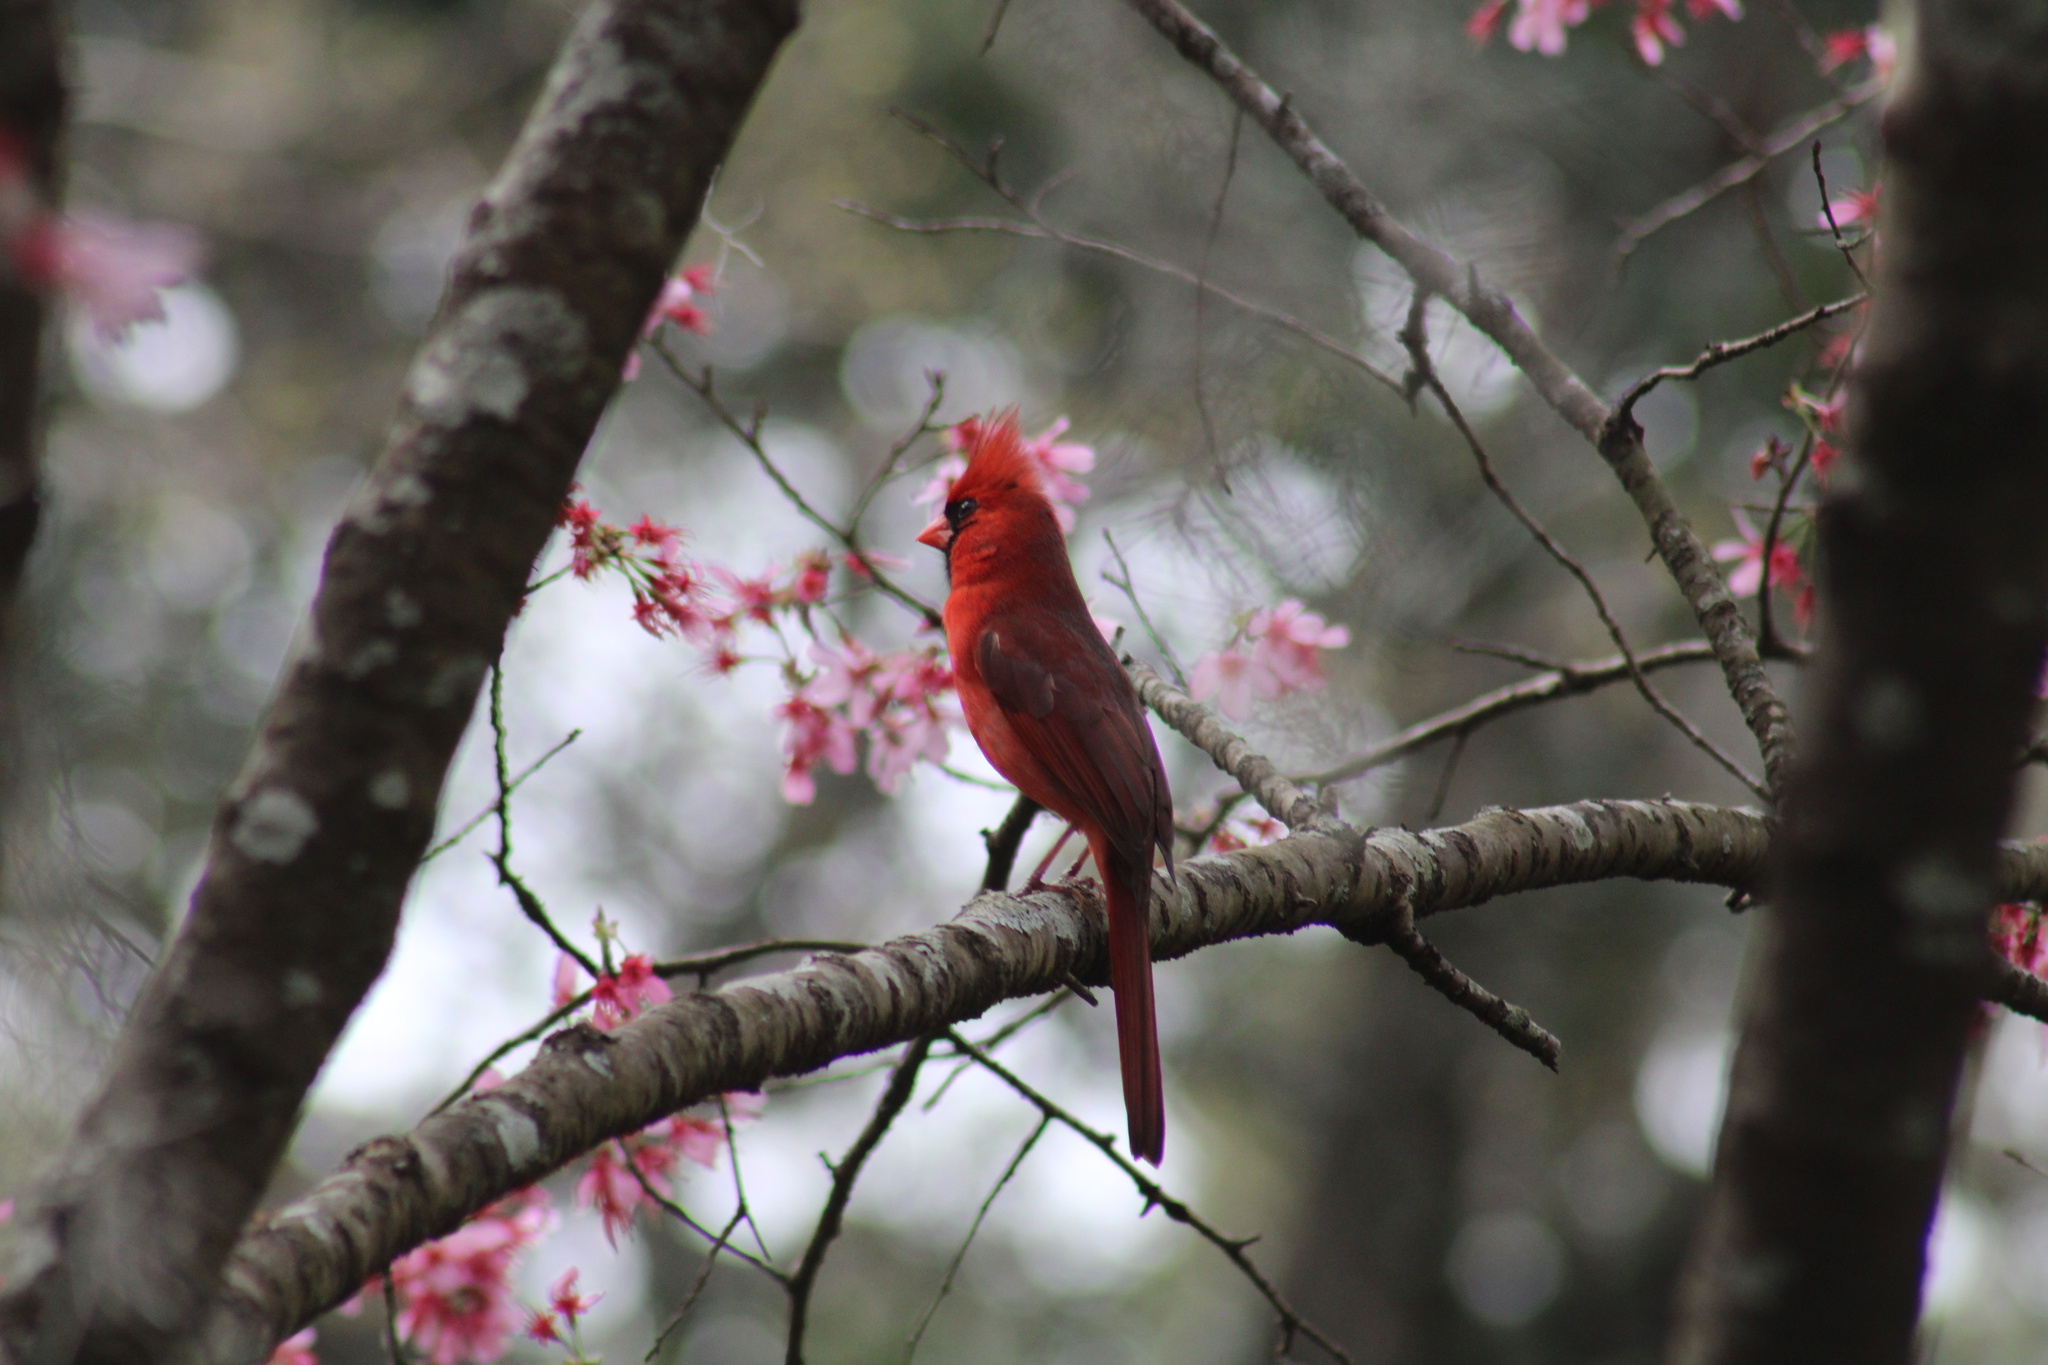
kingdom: Animalia
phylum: Chordata
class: Aves
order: Passeriformes
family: Cardinalidae
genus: Cardinalis
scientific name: Cardinalis cardinalis
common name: Northern cardinal
